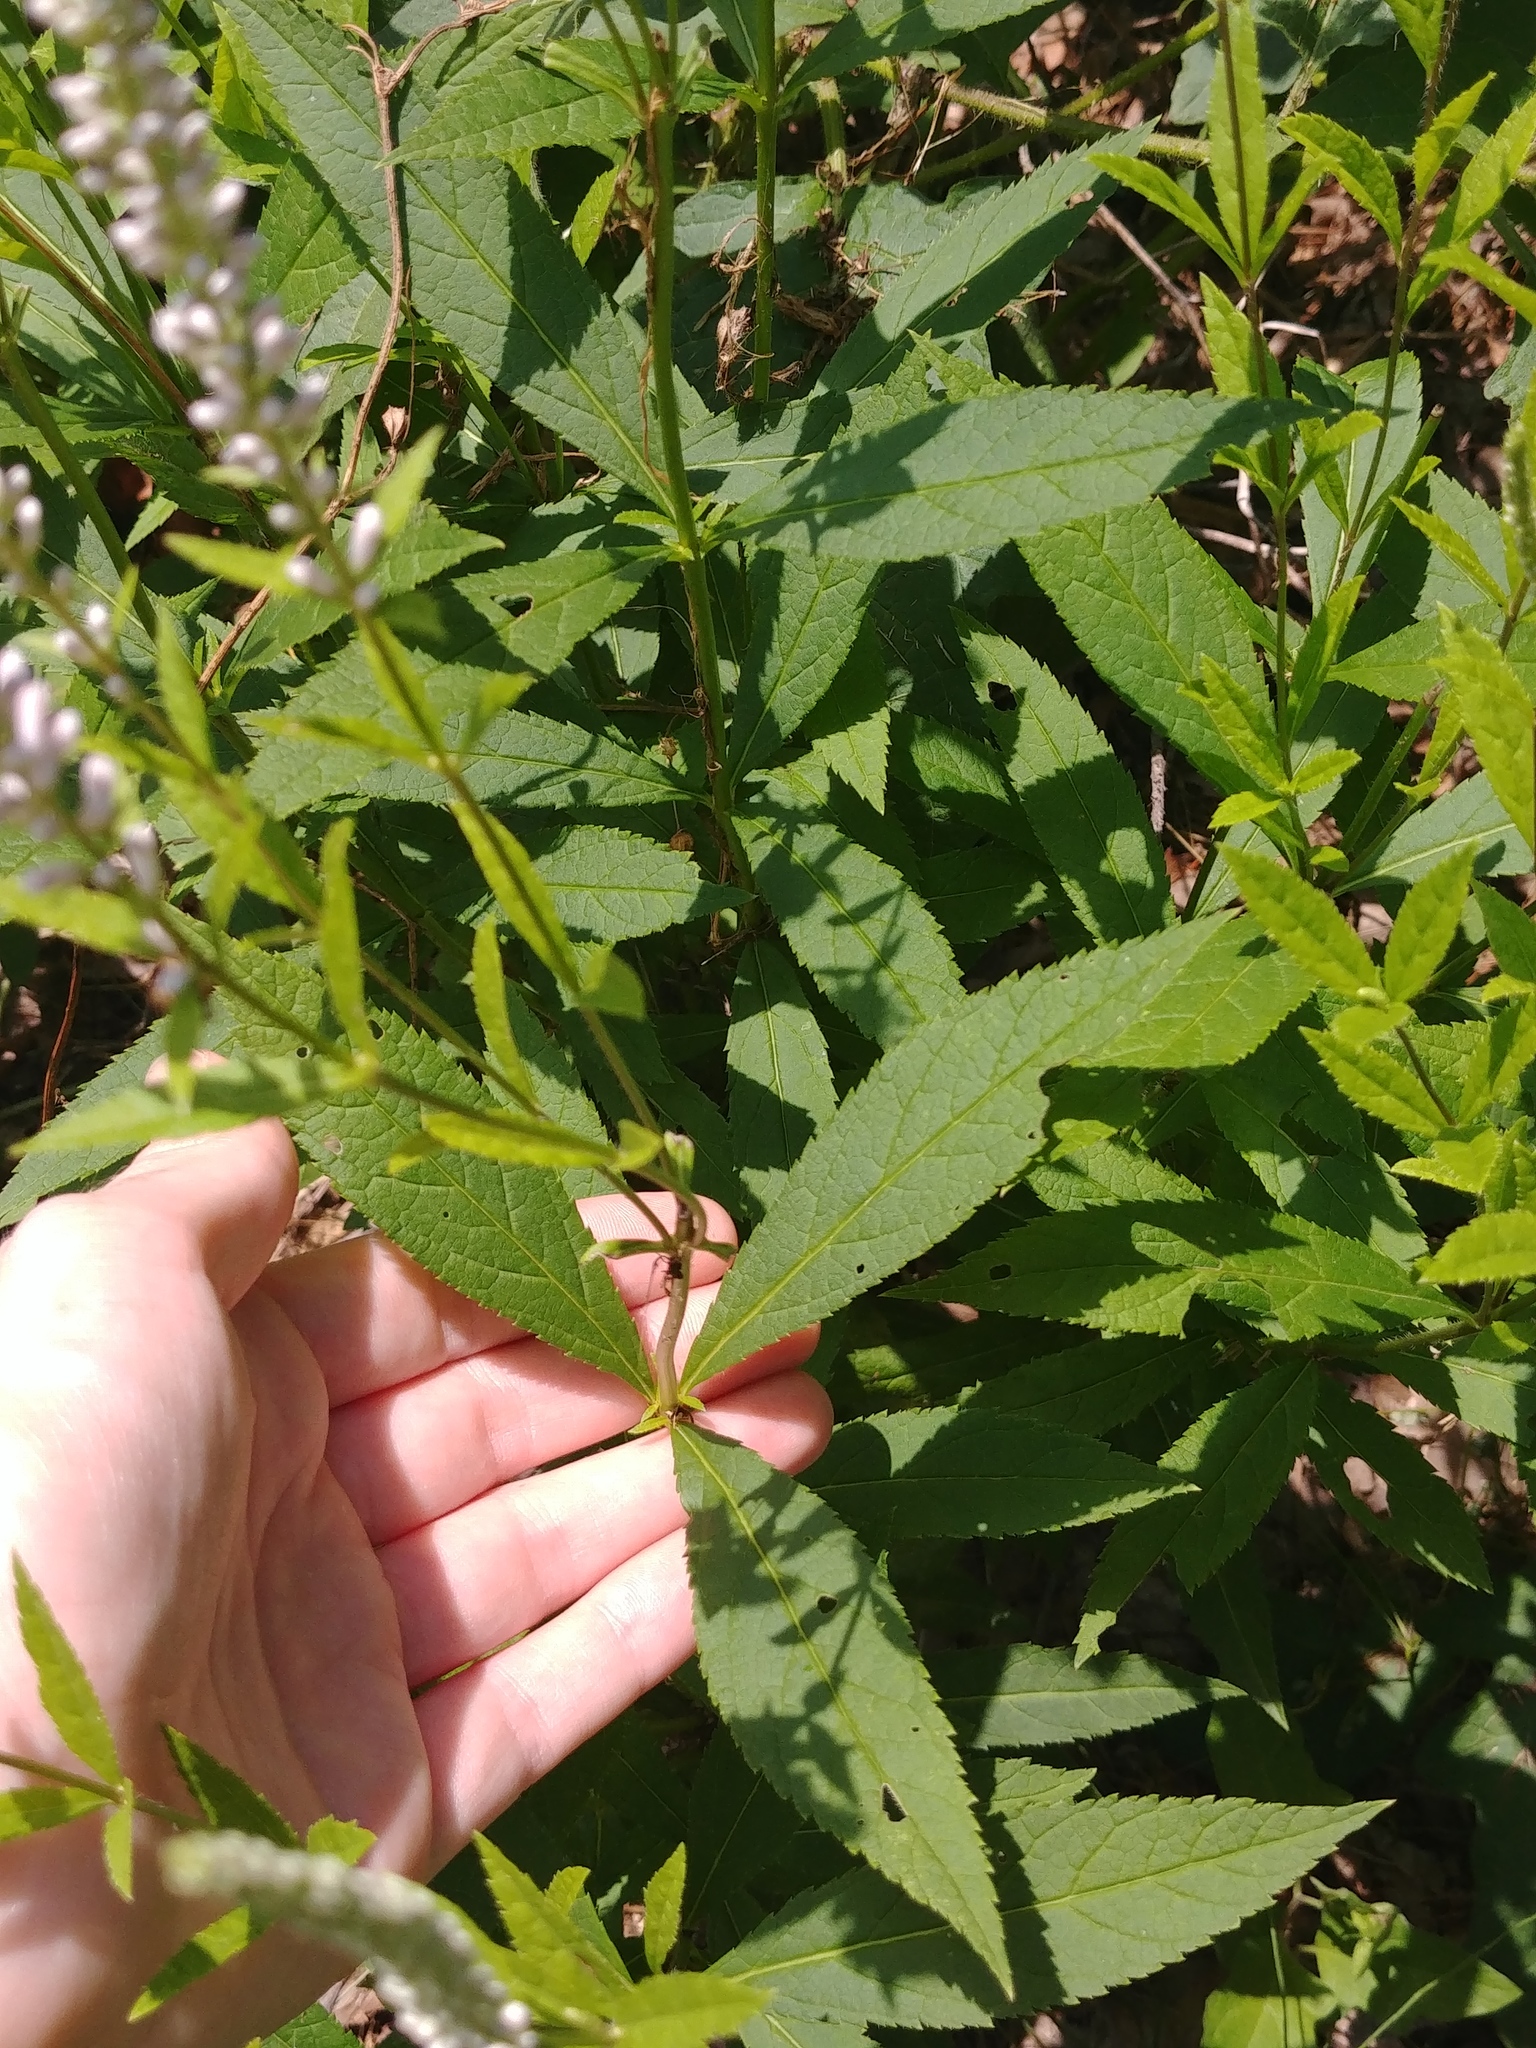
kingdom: Plantae
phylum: Tracheophyta
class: Magnoliopsida
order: Lamiales
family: Plantaginaceae
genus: Veronicastrum
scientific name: Veronicastrum virginicum
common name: Blackroot
